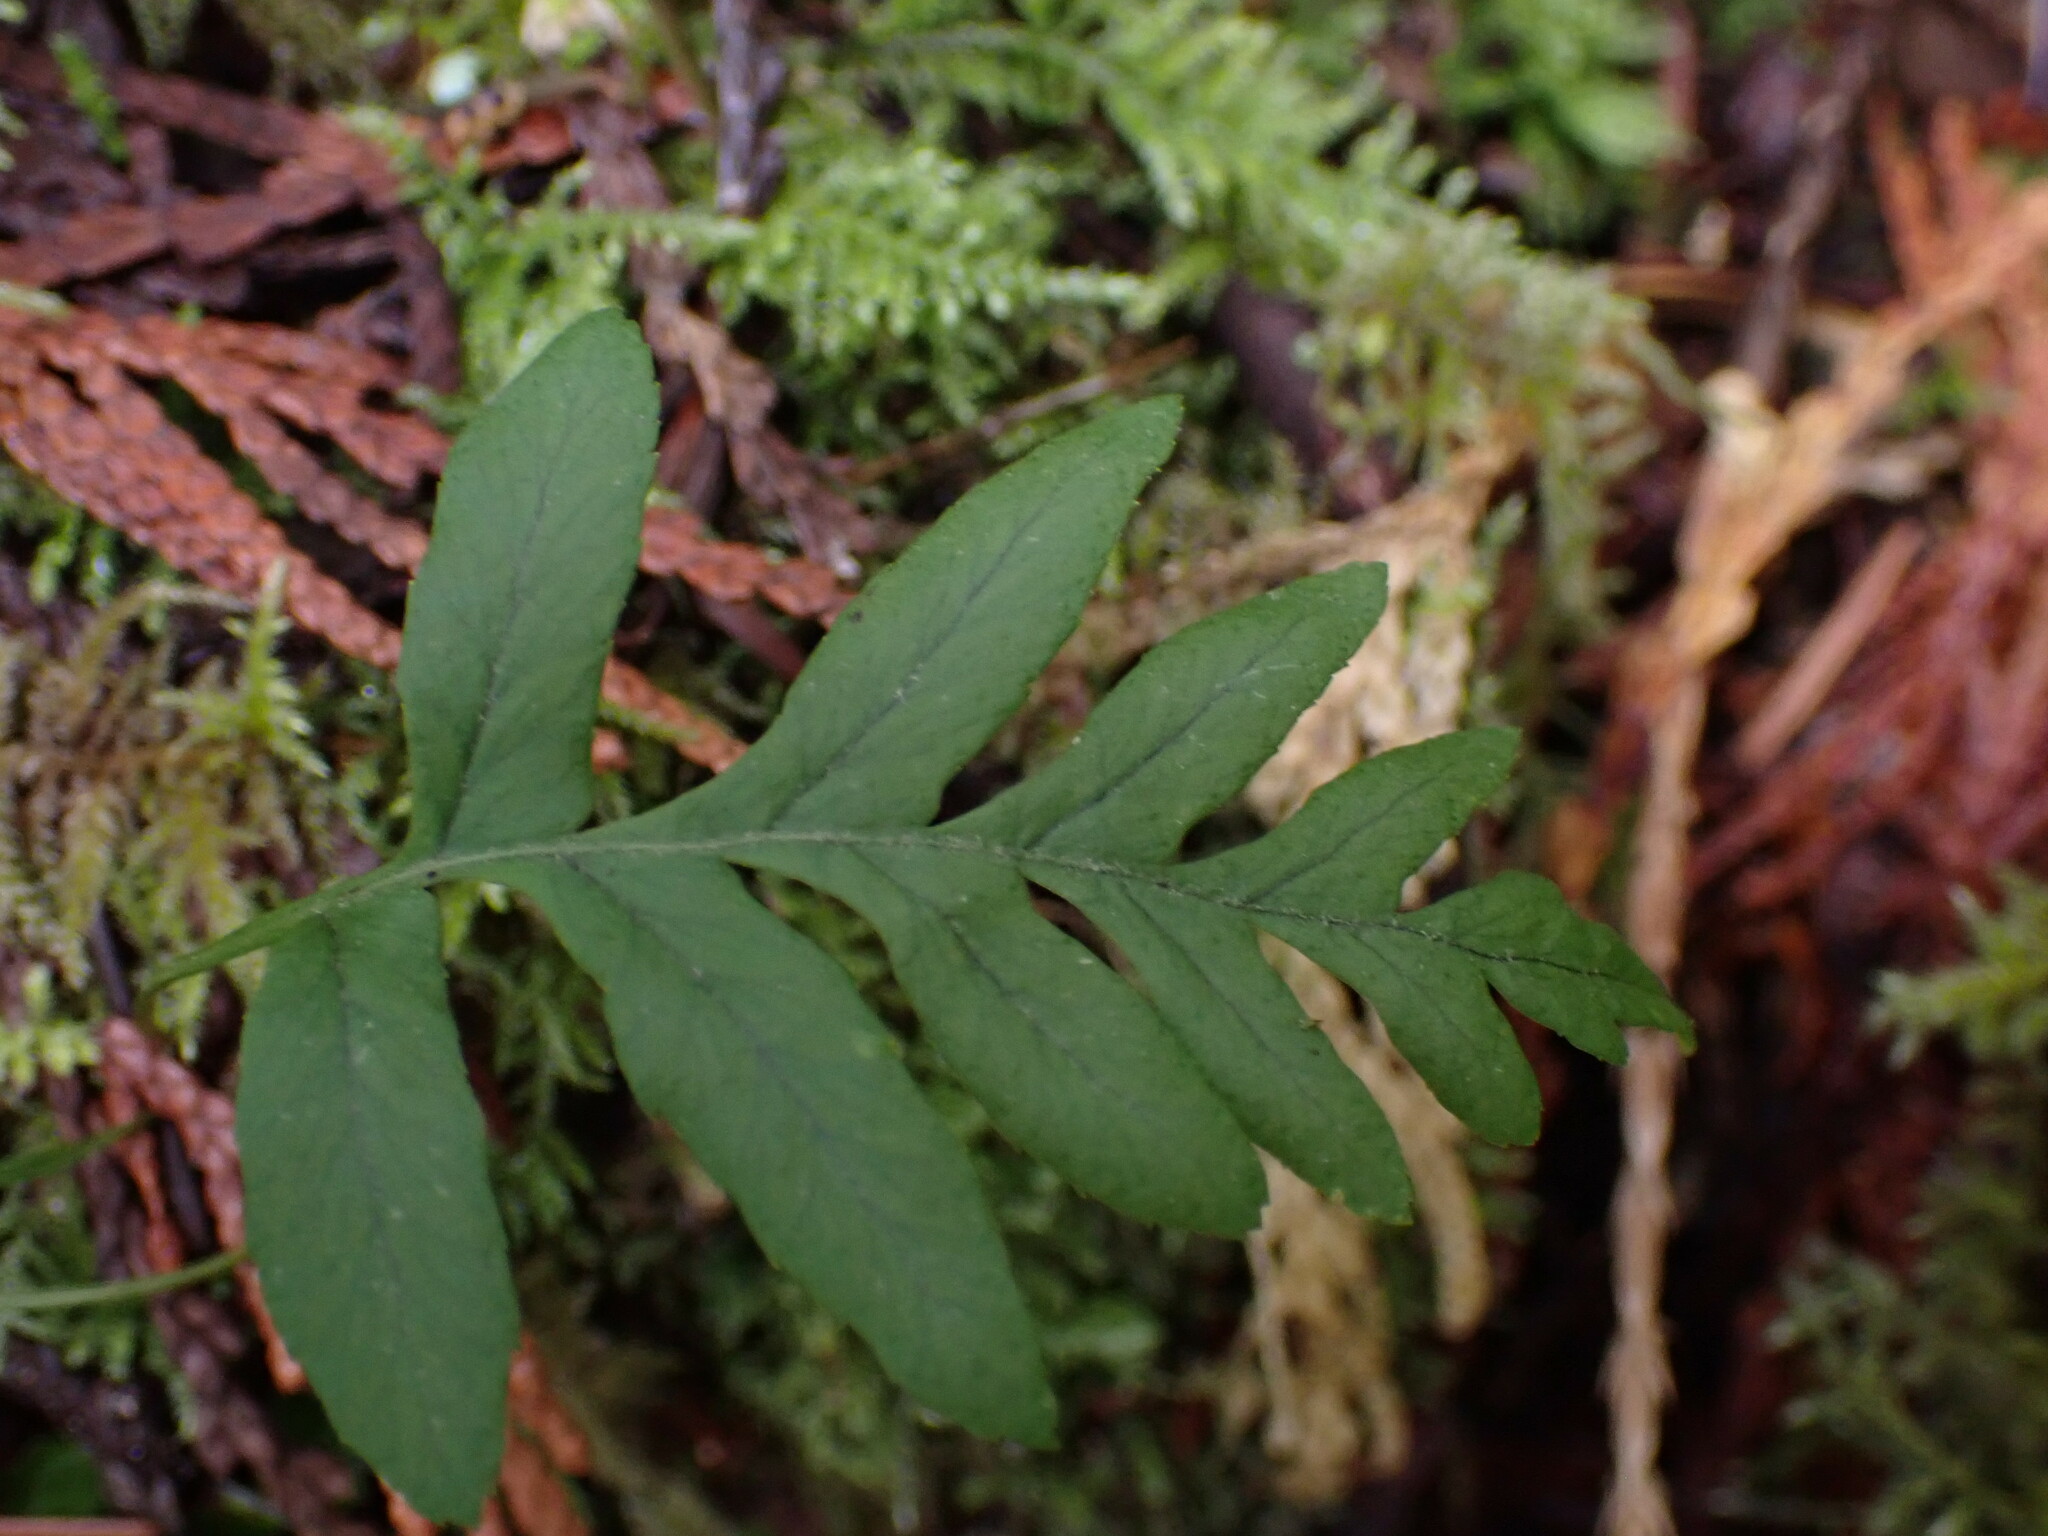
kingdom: Plantae
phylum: Tracheophyta
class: Polypodiopsida
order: Polypodiales
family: Polypodiaceae
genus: Polypodium
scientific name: Polypodium glycyrrhiza
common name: Licorice fern
